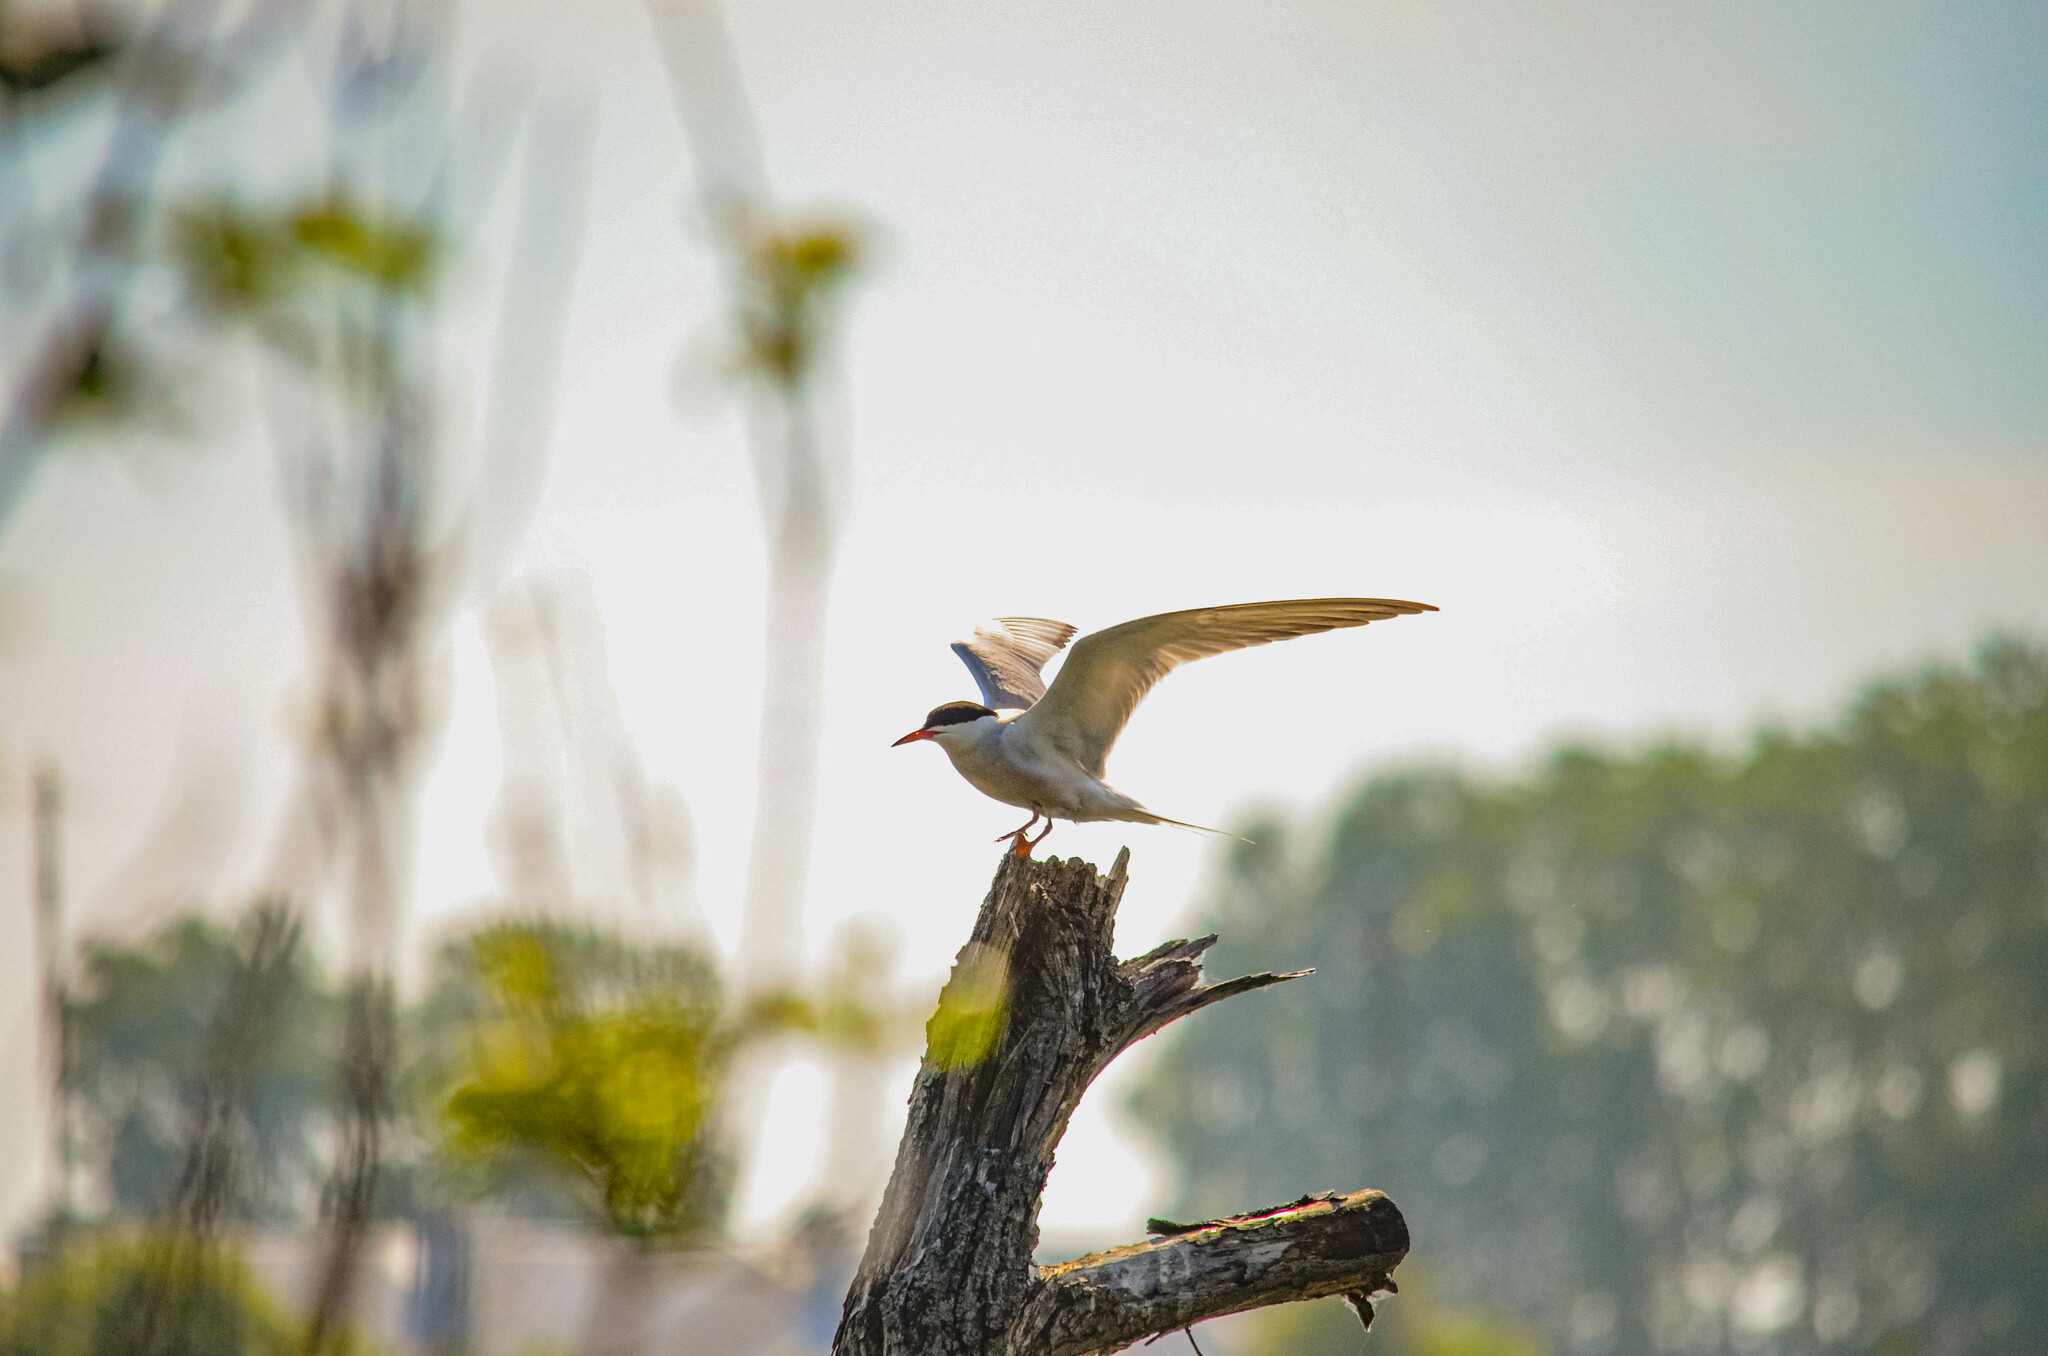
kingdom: Animalia
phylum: Chordata
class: Aves
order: Charadriiformes
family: Laridae
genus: Sterna
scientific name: Sterna hirundo
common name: Common tern
